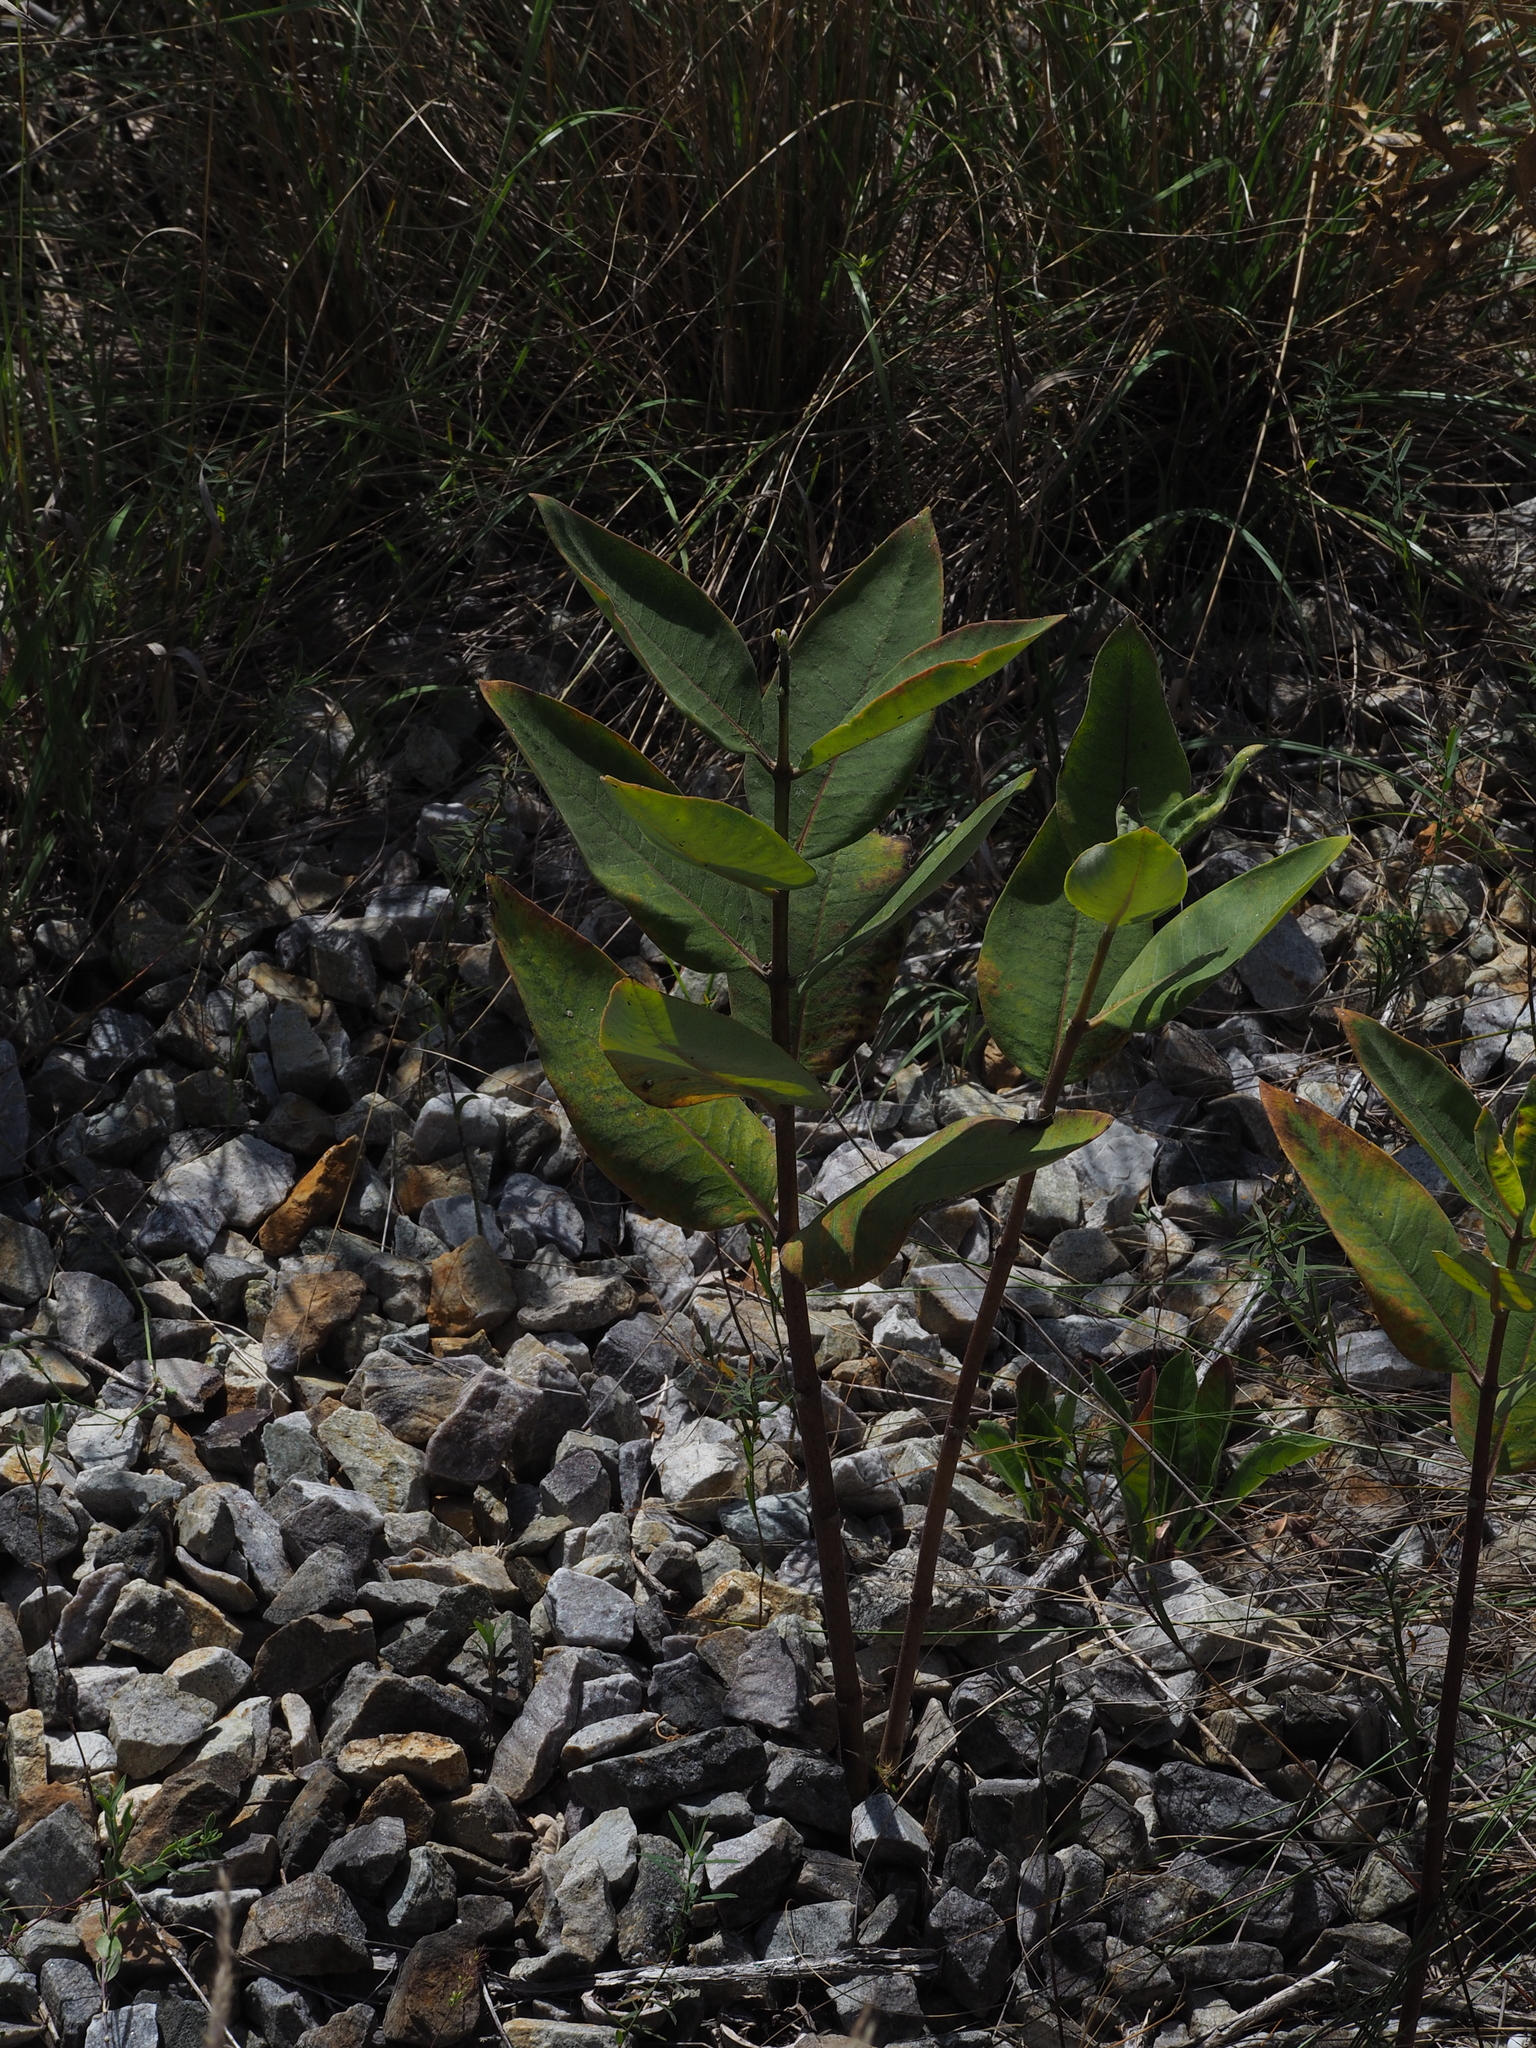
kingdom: Plantae
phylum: Tracheophyta
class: Magnoliopsida
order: Gentianales
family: Apocynaceae
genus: Asclepias
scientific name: Asclepias syriaca
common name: Common milkweed
